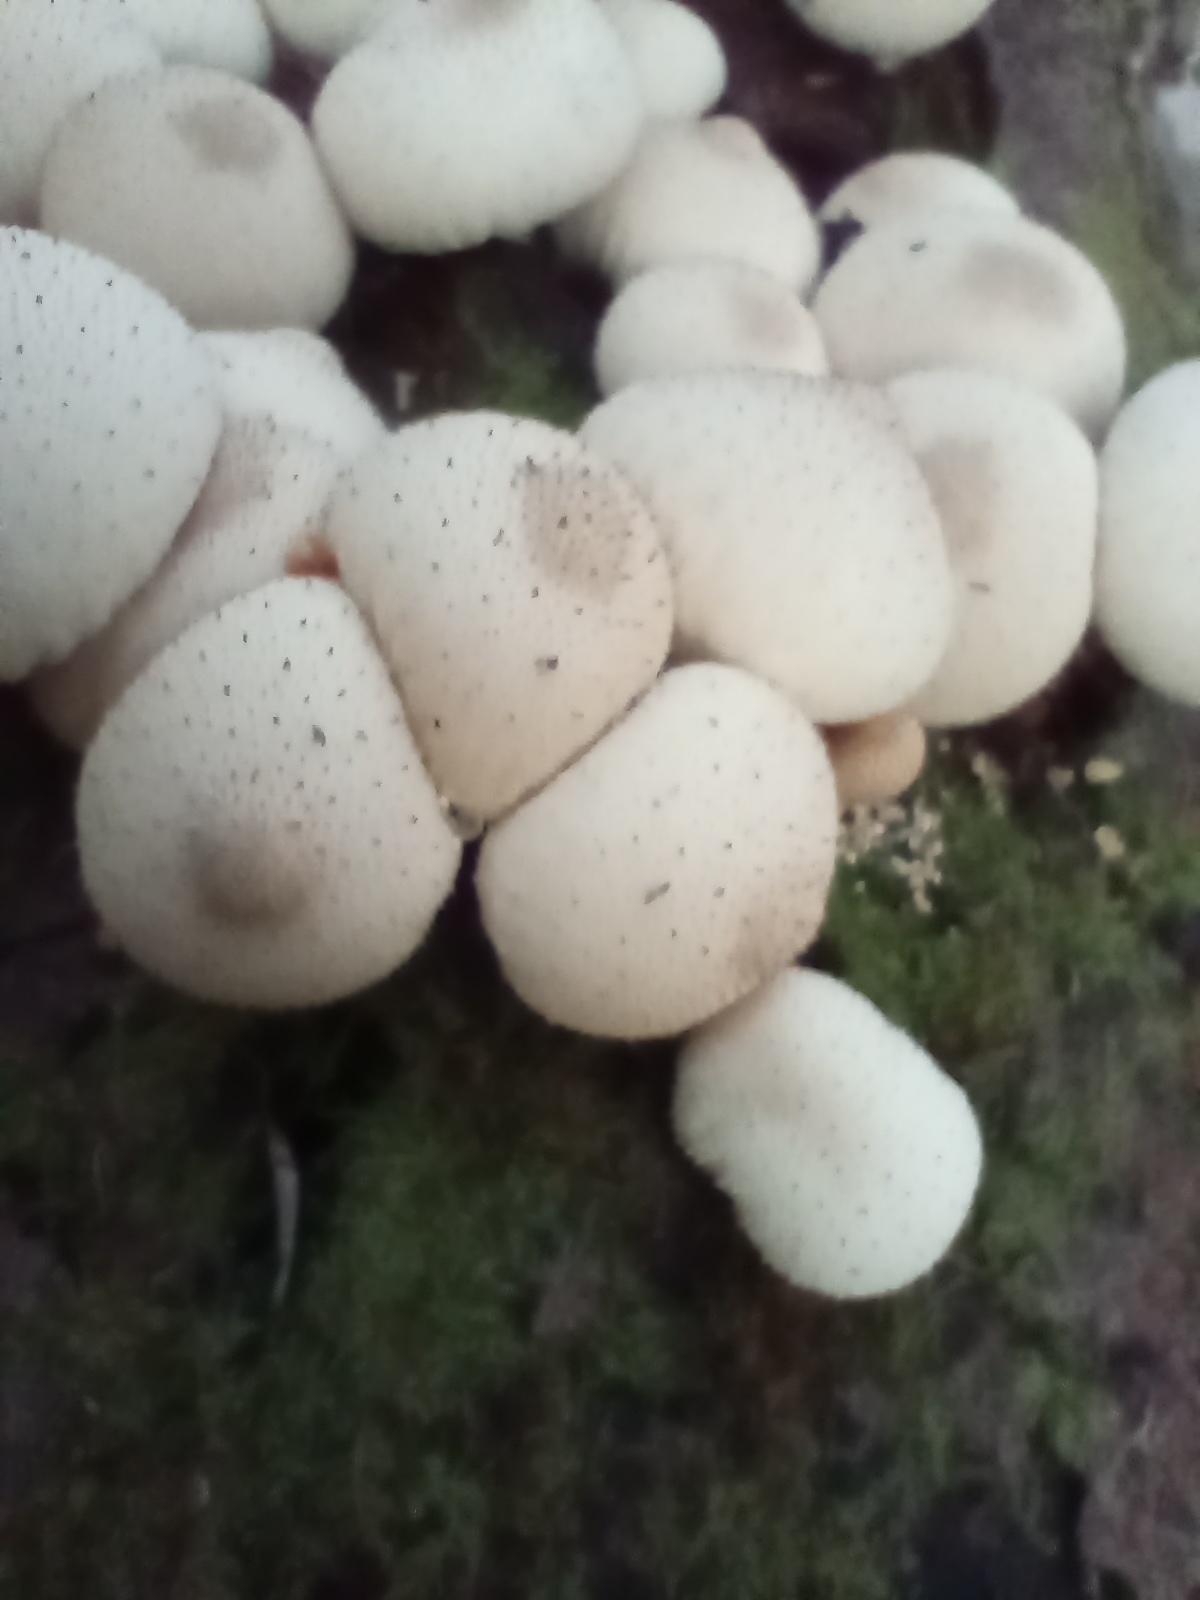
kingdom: Fungi
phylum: Basidiomycota
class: Agaricomycetes
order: Agaricales
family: Lycoperdaceae
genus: Apioperdon
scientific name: Apioperdon pyriforme
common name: Pear-shaped puffball
